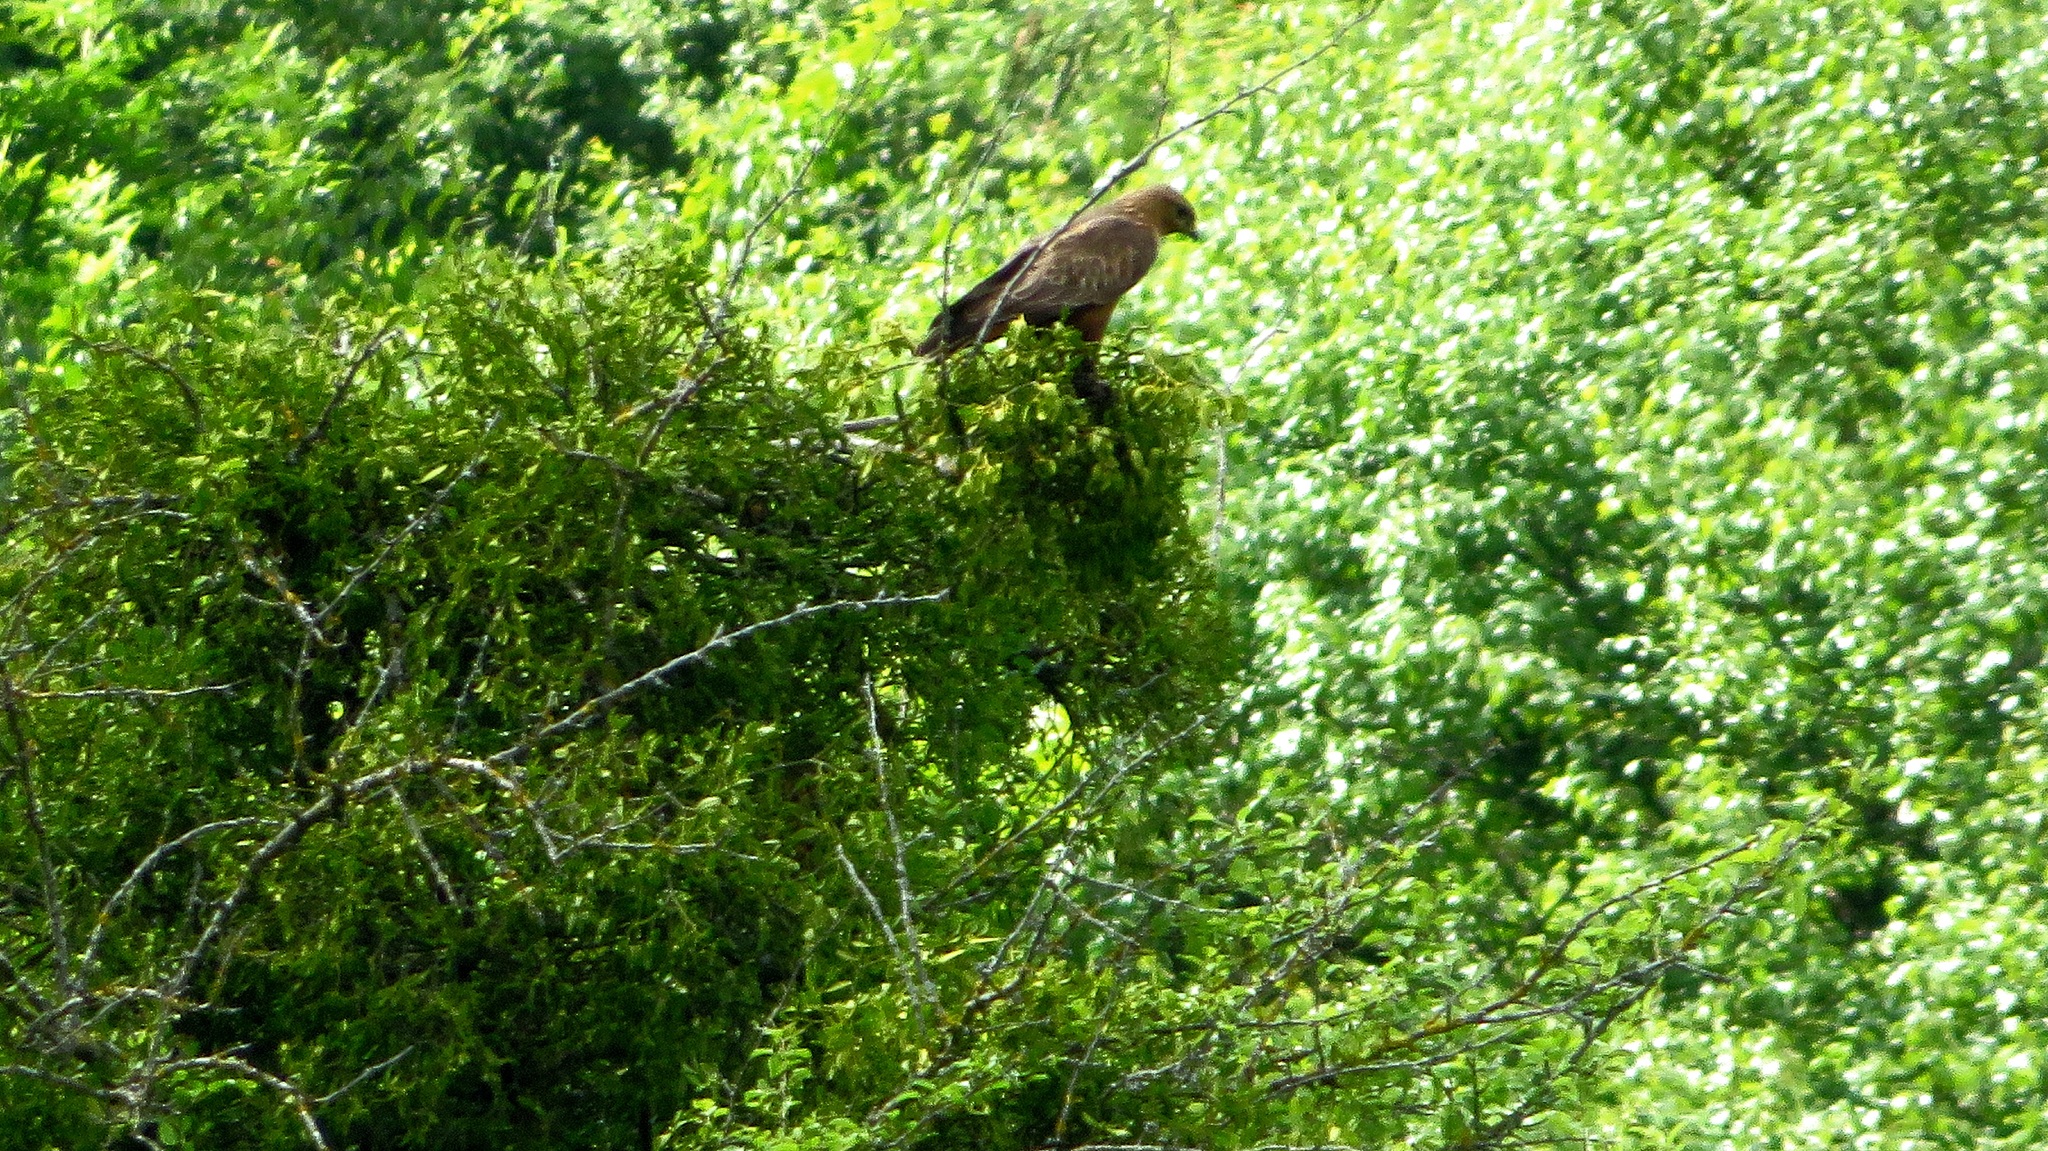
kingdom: Animalia
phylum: Chordata
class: Aves
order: Accipitriformes
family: Accipitridae
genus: Aquila
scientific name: Aquila pomarina
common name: Lesser spotted eagle
